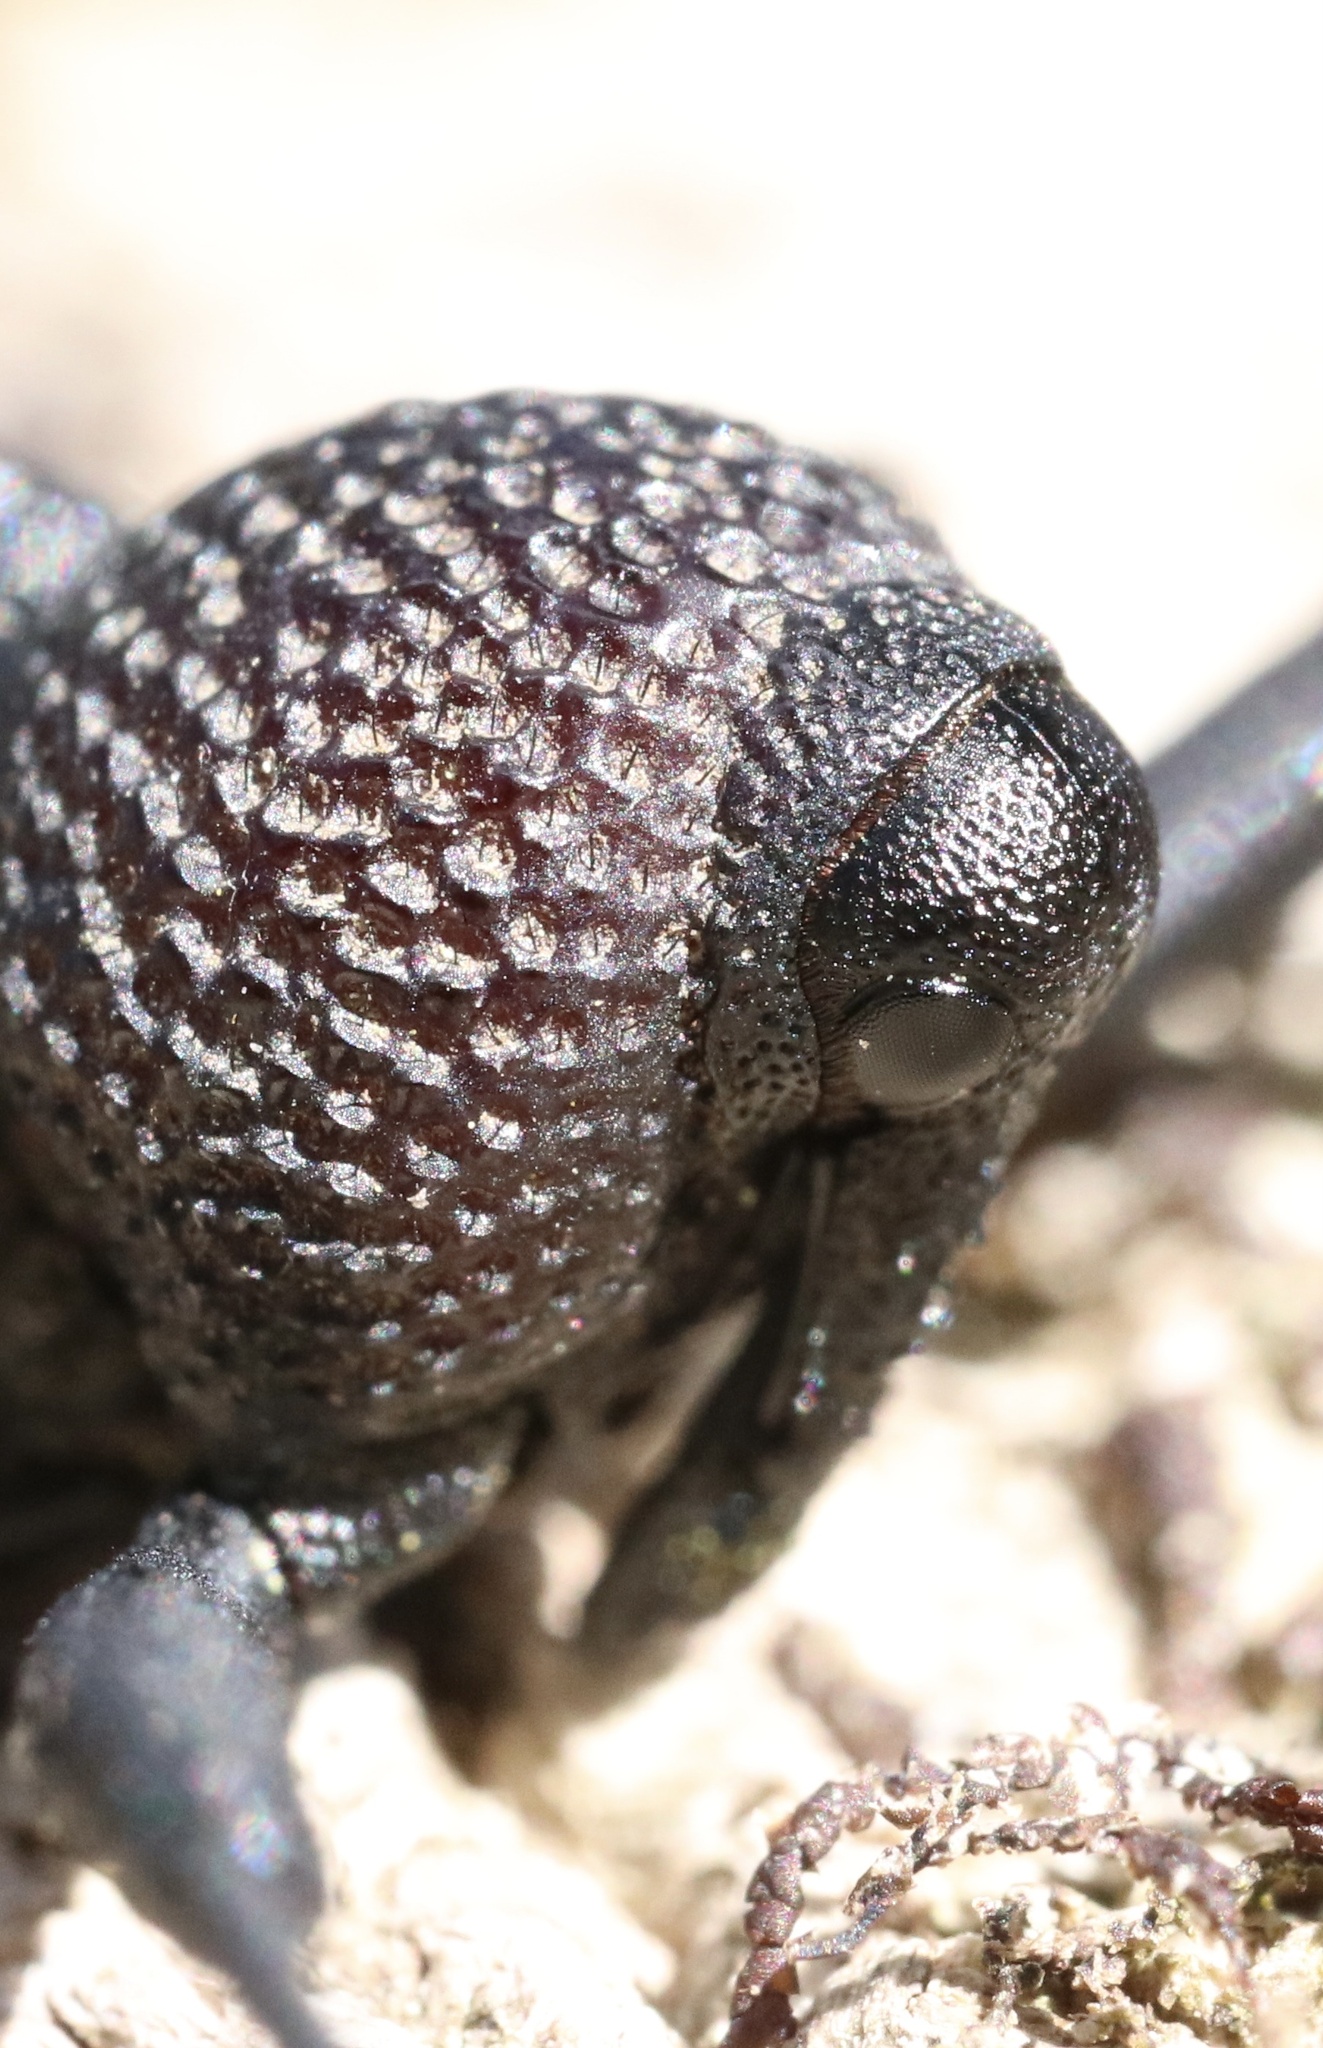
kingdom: Animalia
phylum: Arthropoda
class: Insecta
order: Coleoptera
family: Curculionidae
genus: Rhyephenes
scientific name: Rhyephenes humeralis
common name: Araè±ita chilena del pino
